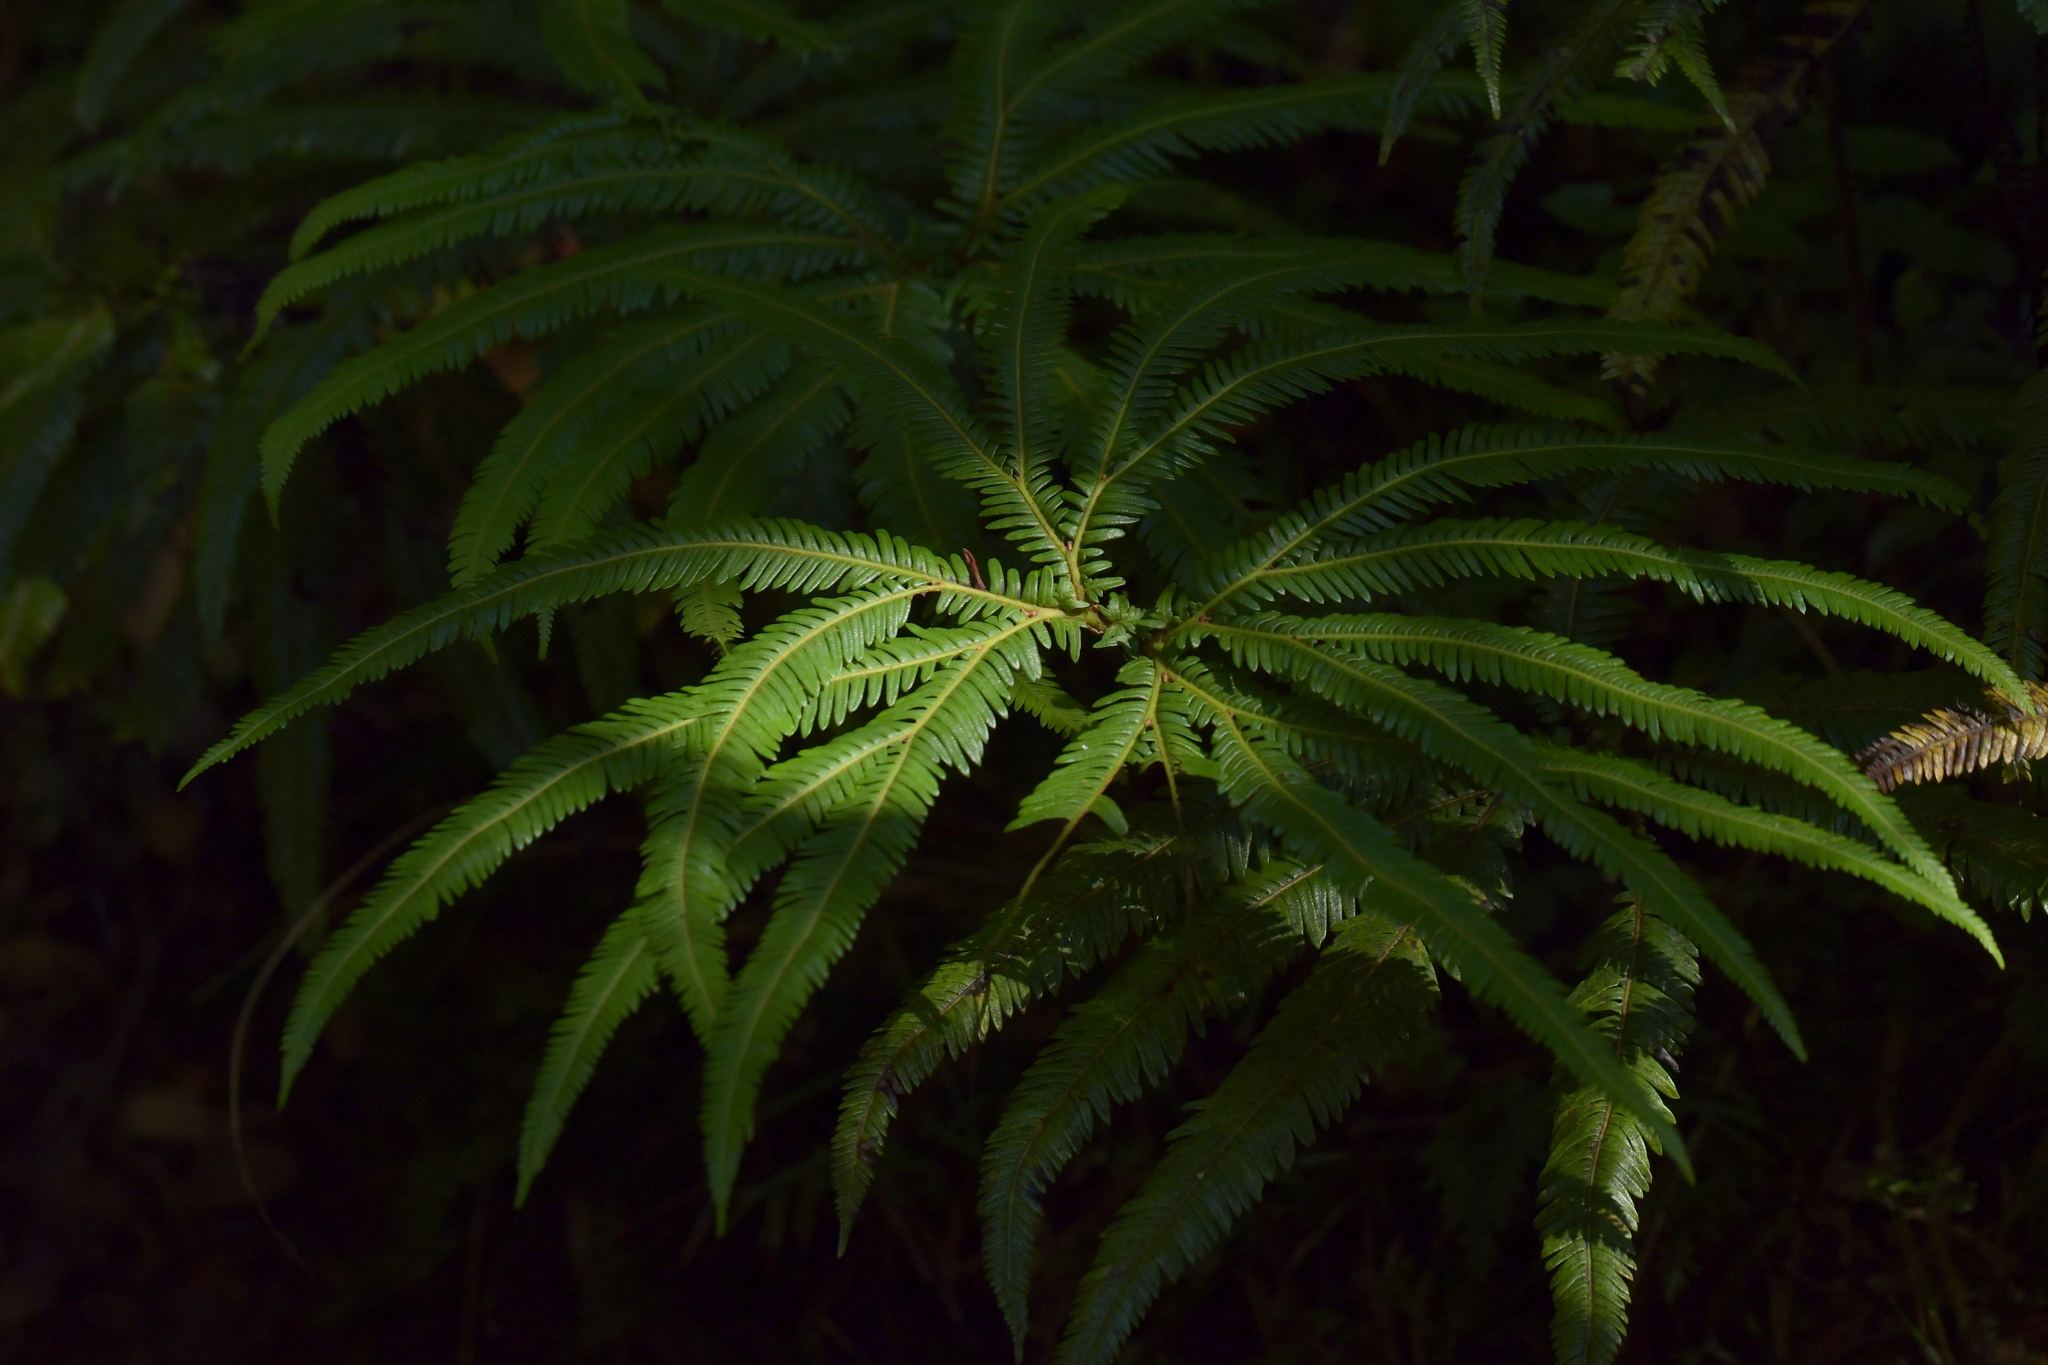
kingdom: Plantae
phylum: Tracheophyta
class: Polypodiopsida
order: Gleicheniales
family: Gleicheniaceae
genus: Sticherus
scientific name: Sticherus cunninghamii
